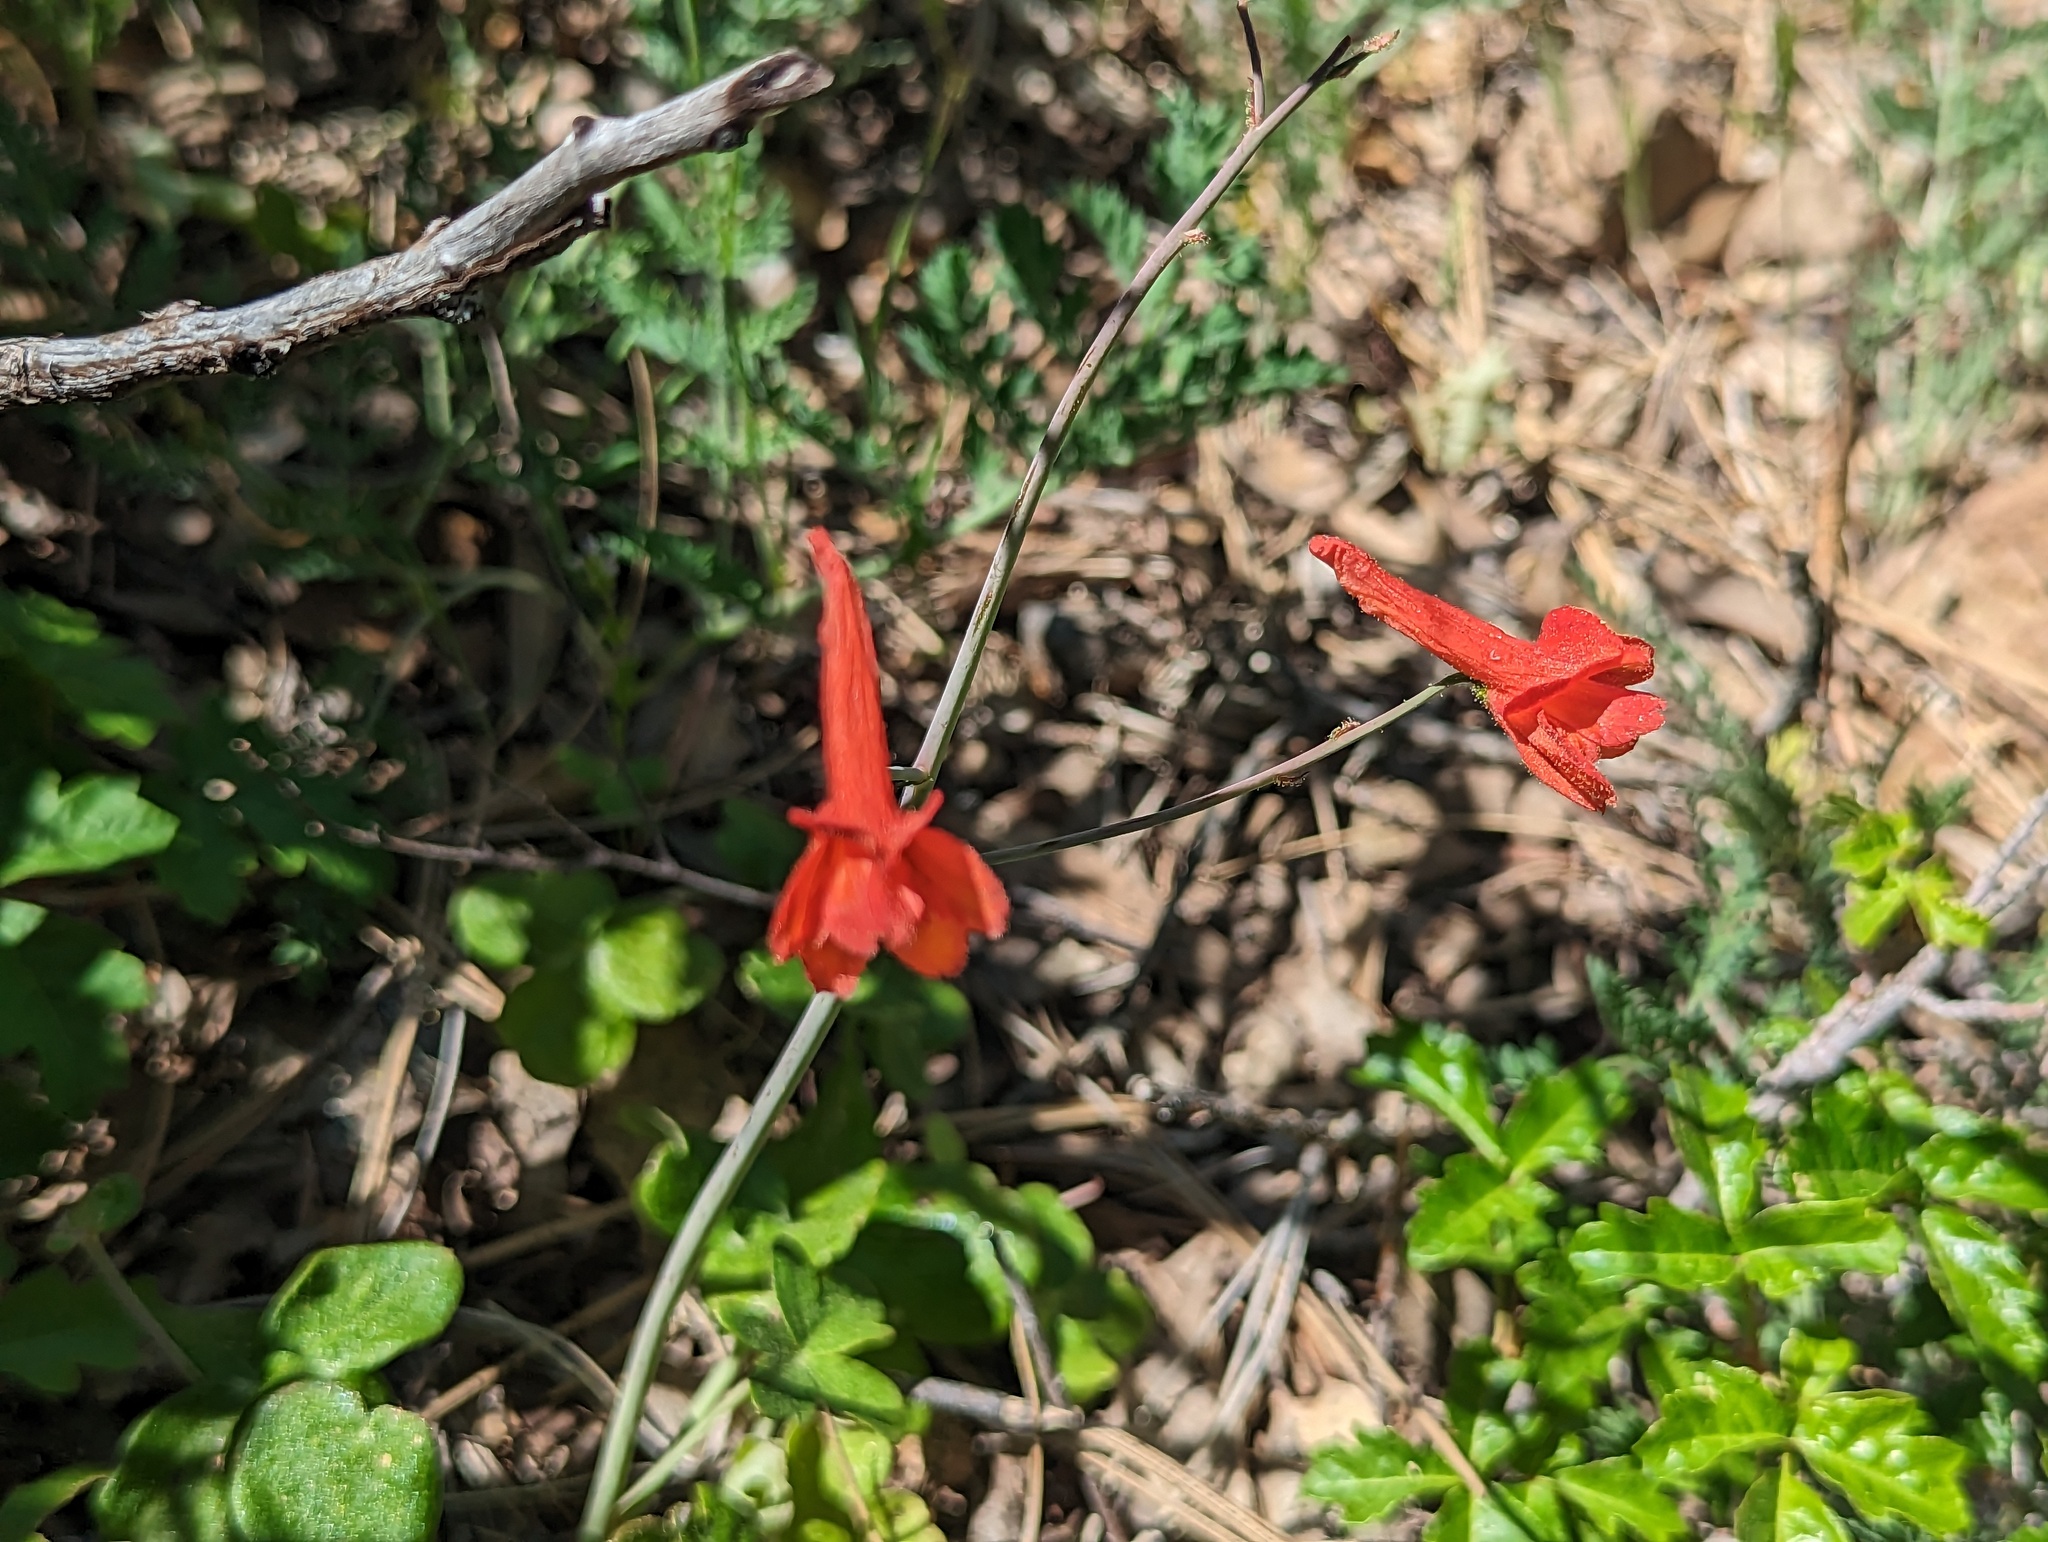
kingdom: Plantae
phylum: Tracheophyta
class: Magnoliopsida
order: Ranunculales
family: Ranunculaceae
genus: Delphinium
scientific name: Delphinium nudicaule
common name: Red larkspur
